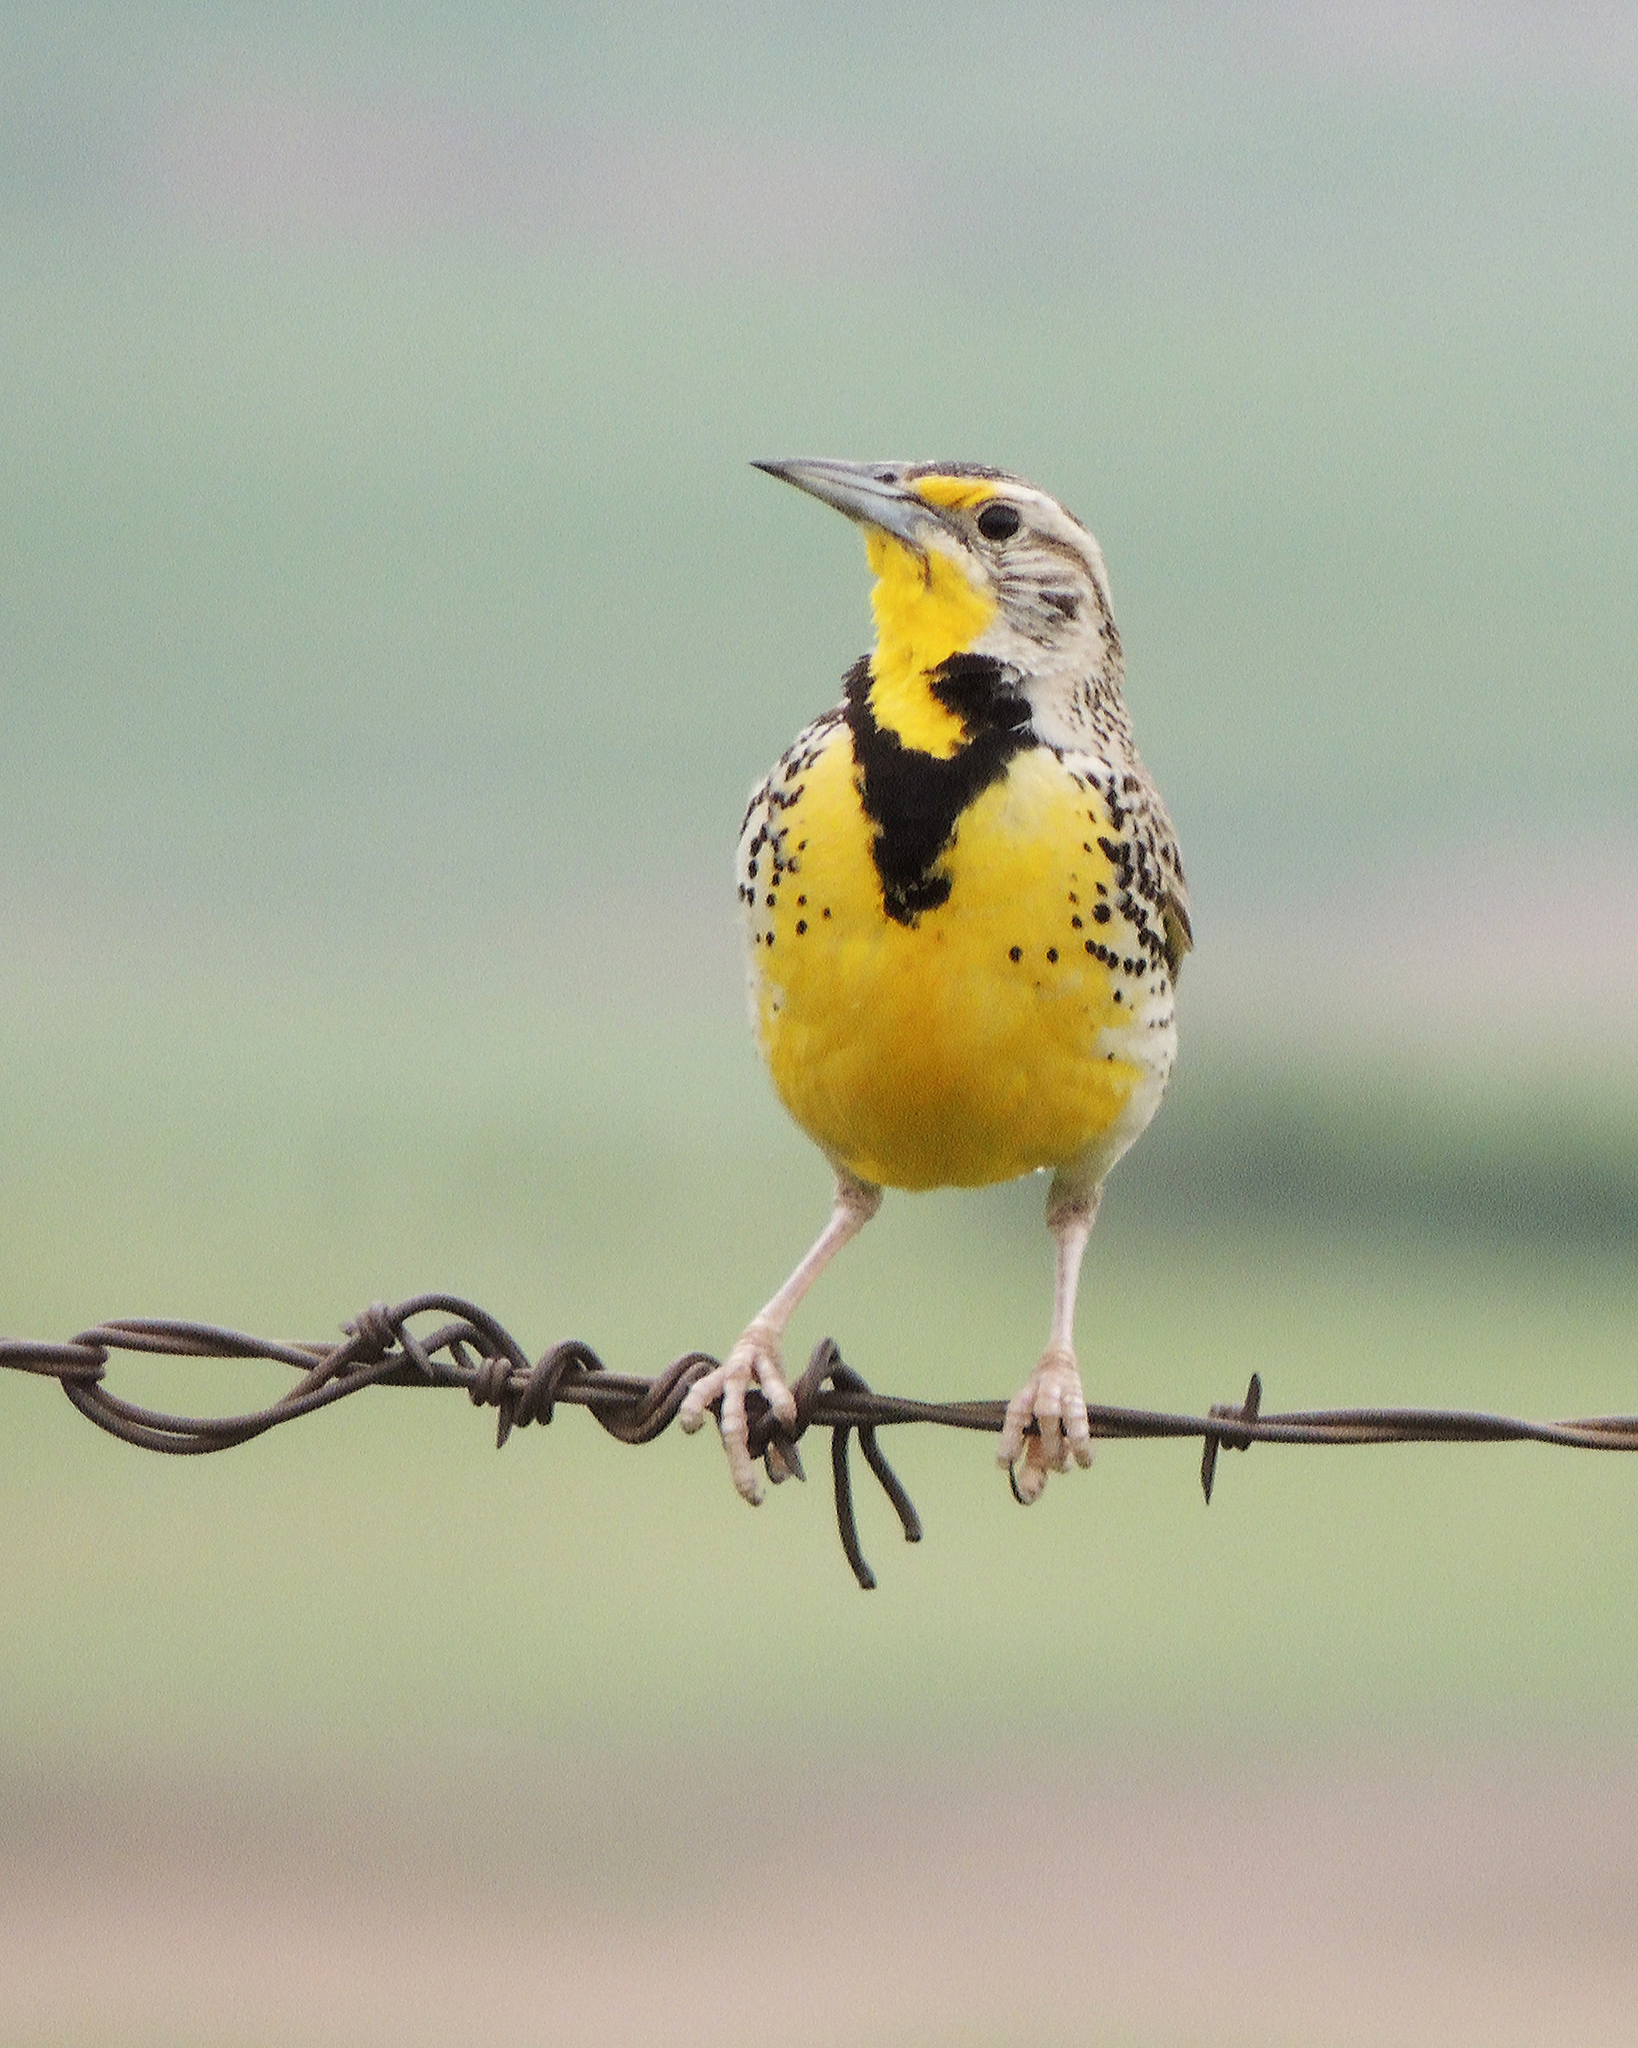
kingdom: Animalia
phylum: Chordata
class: Aves
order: Passeriformes
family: Icteridae
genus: Sturnella
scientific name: Sturnella neglecta
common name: Western meadowlark
